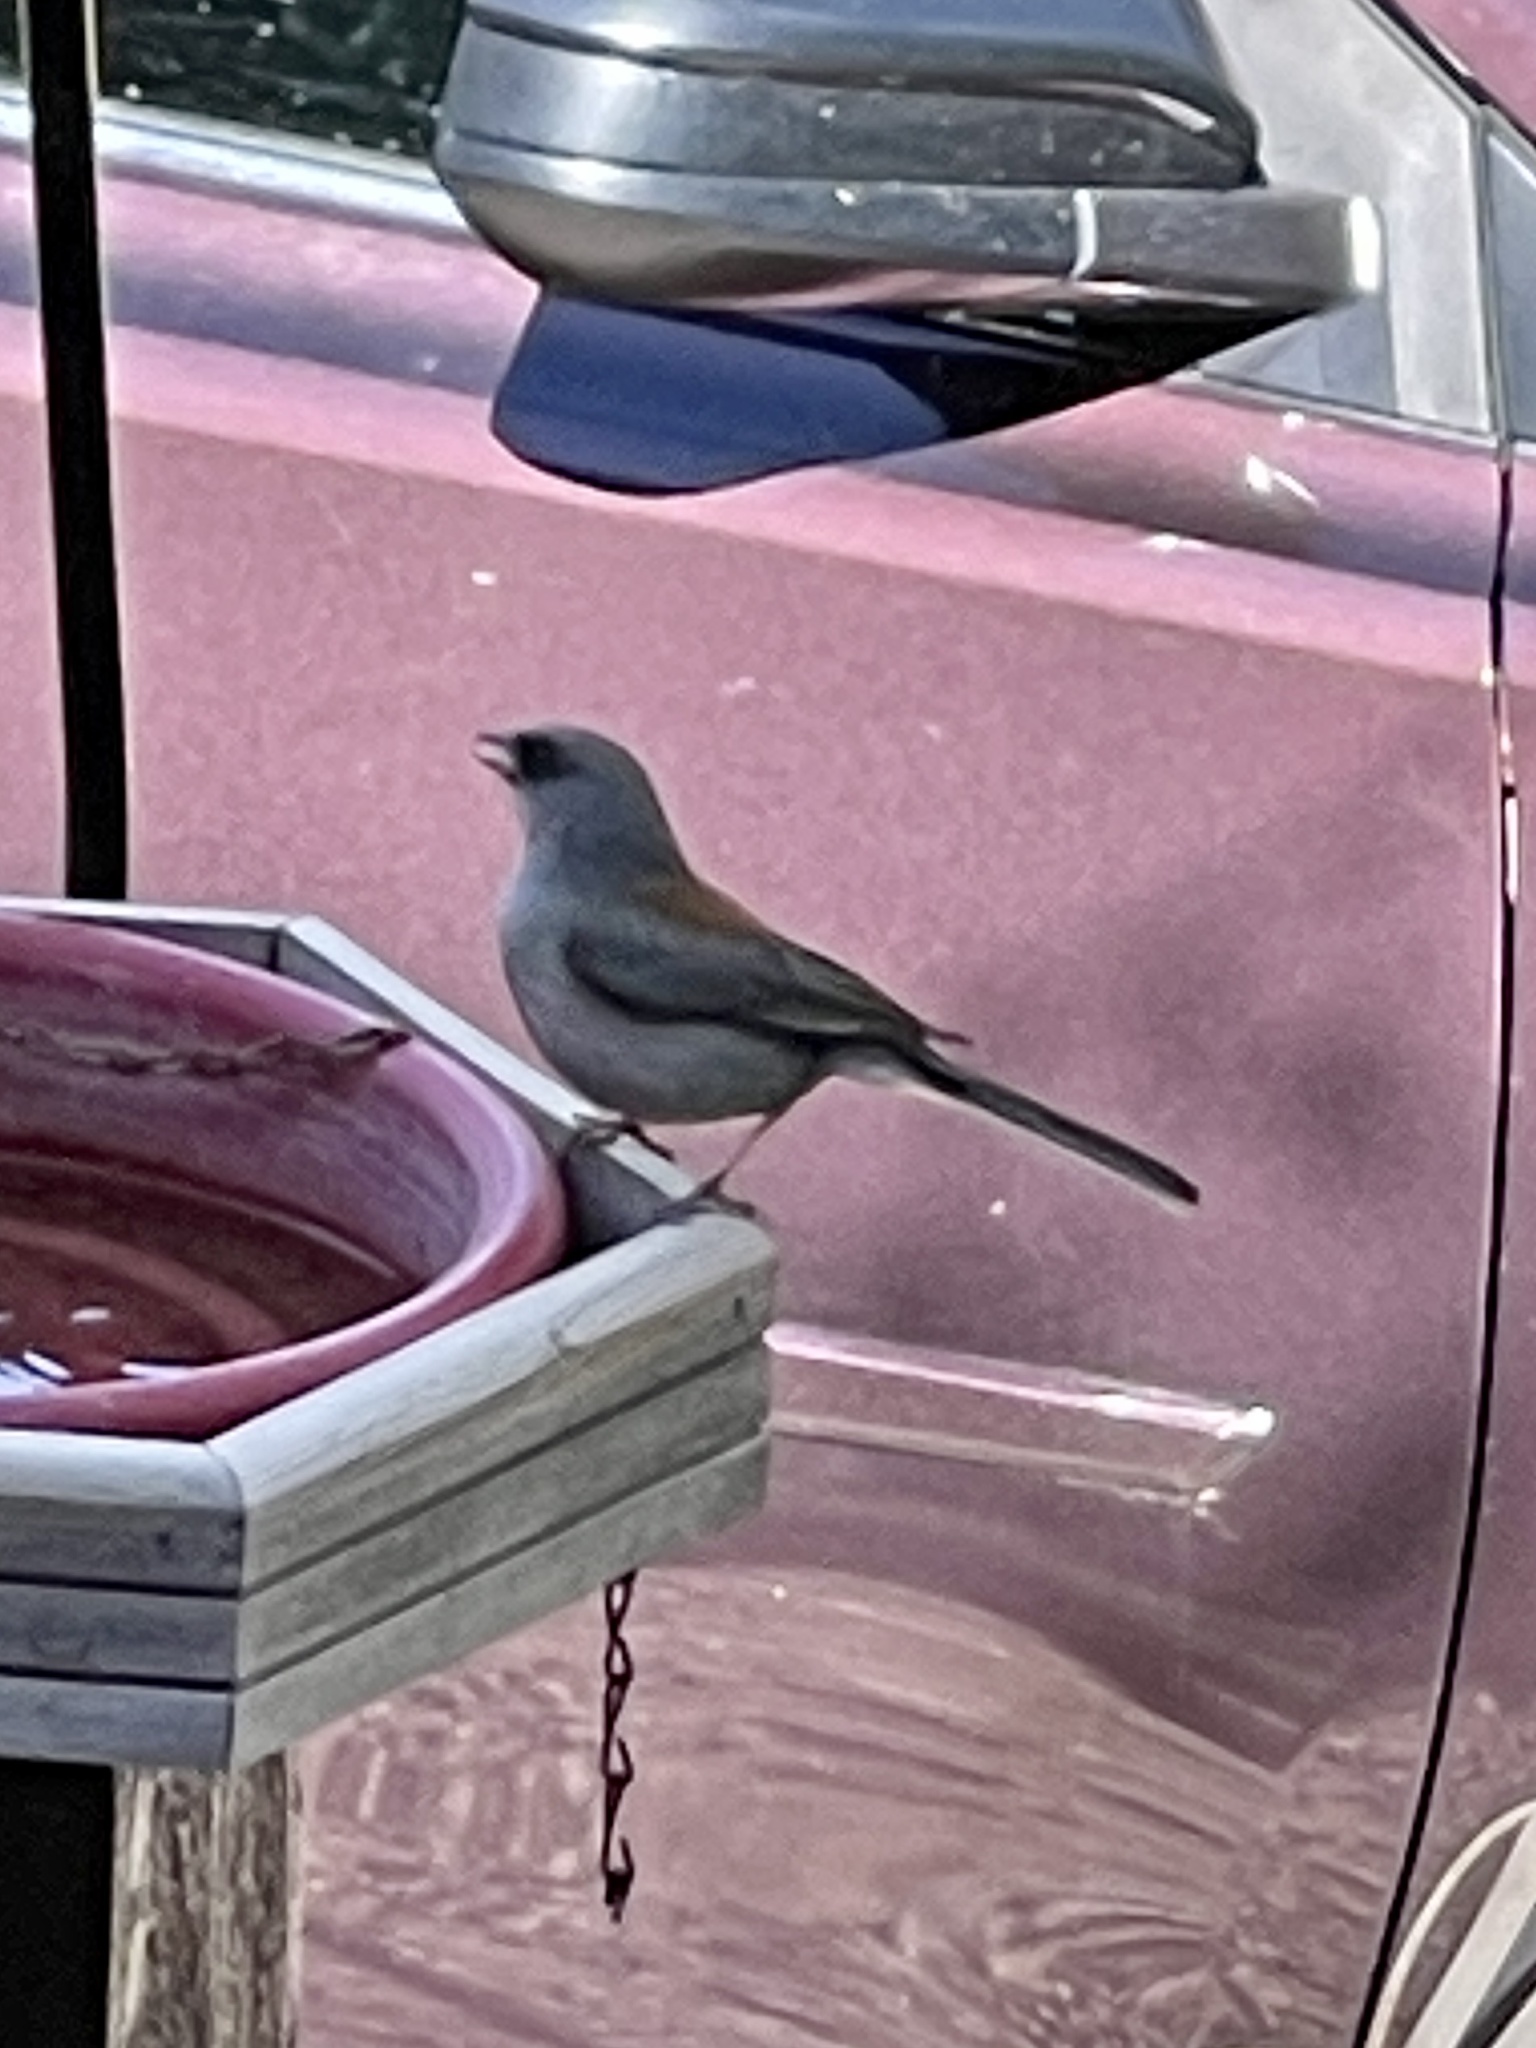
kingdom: Animalia
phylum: Chordata
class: Aves
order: Passeriformes
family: Passerellidae
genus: Junco
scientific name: Junco hyemalis
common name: Dark-eyed junco
